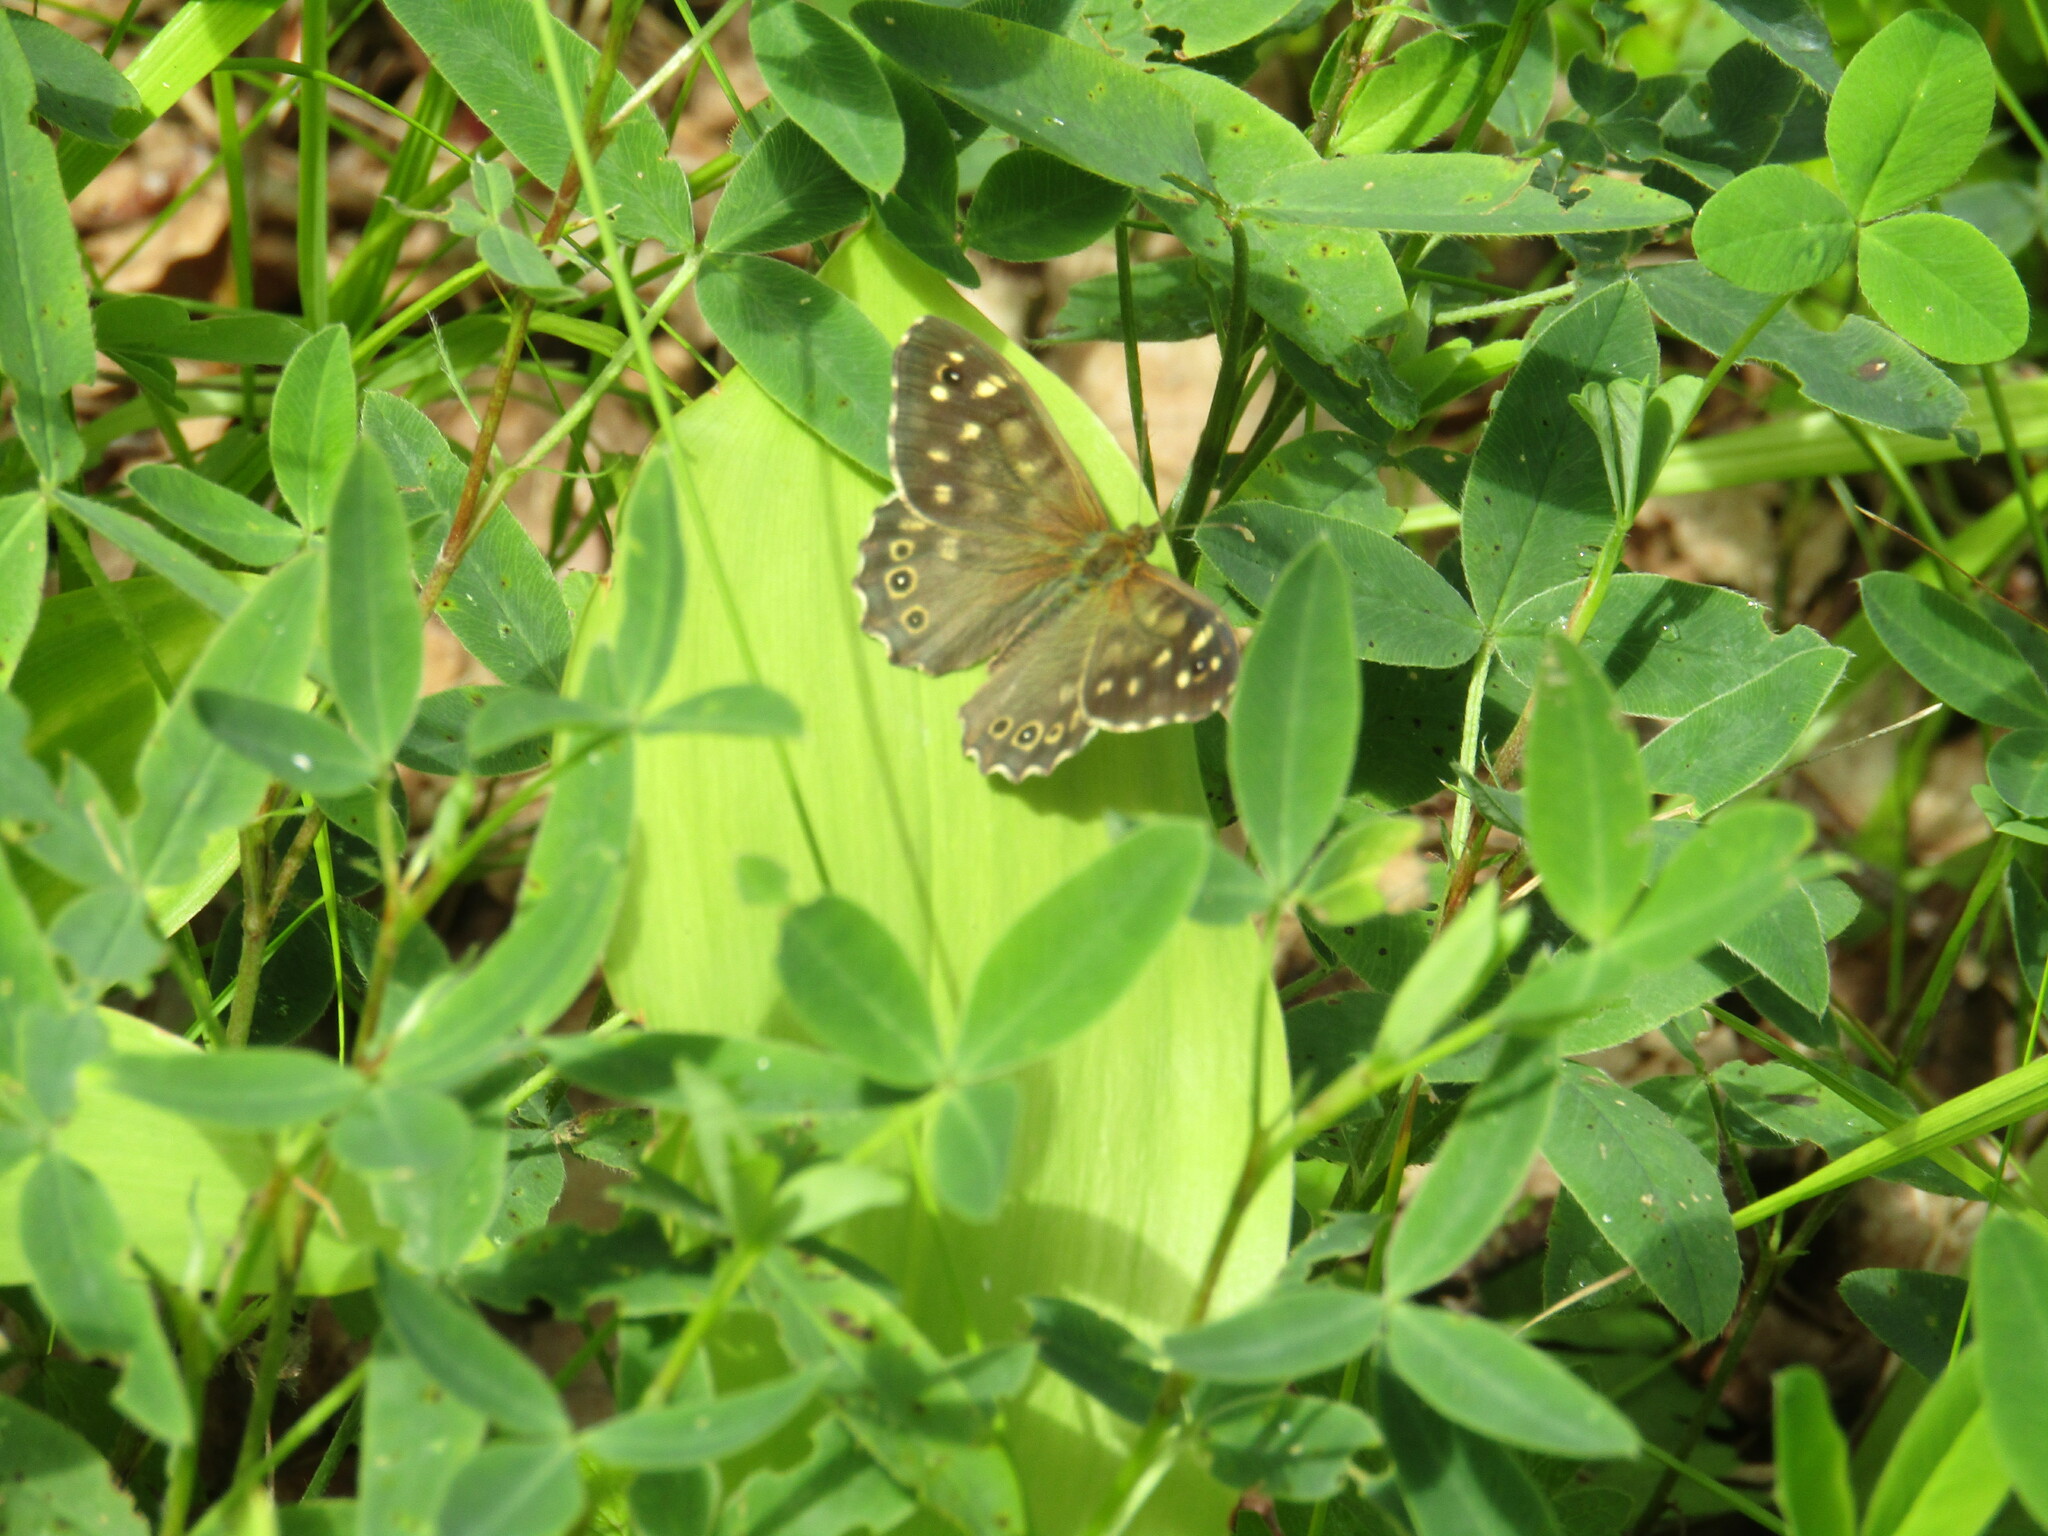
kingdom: Animalia
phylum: Arthropoda
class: Insecta
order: Lepidoptera
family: Nymphalidae
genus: Pararge
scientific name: Pararge aegeria
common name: Speckled wood
